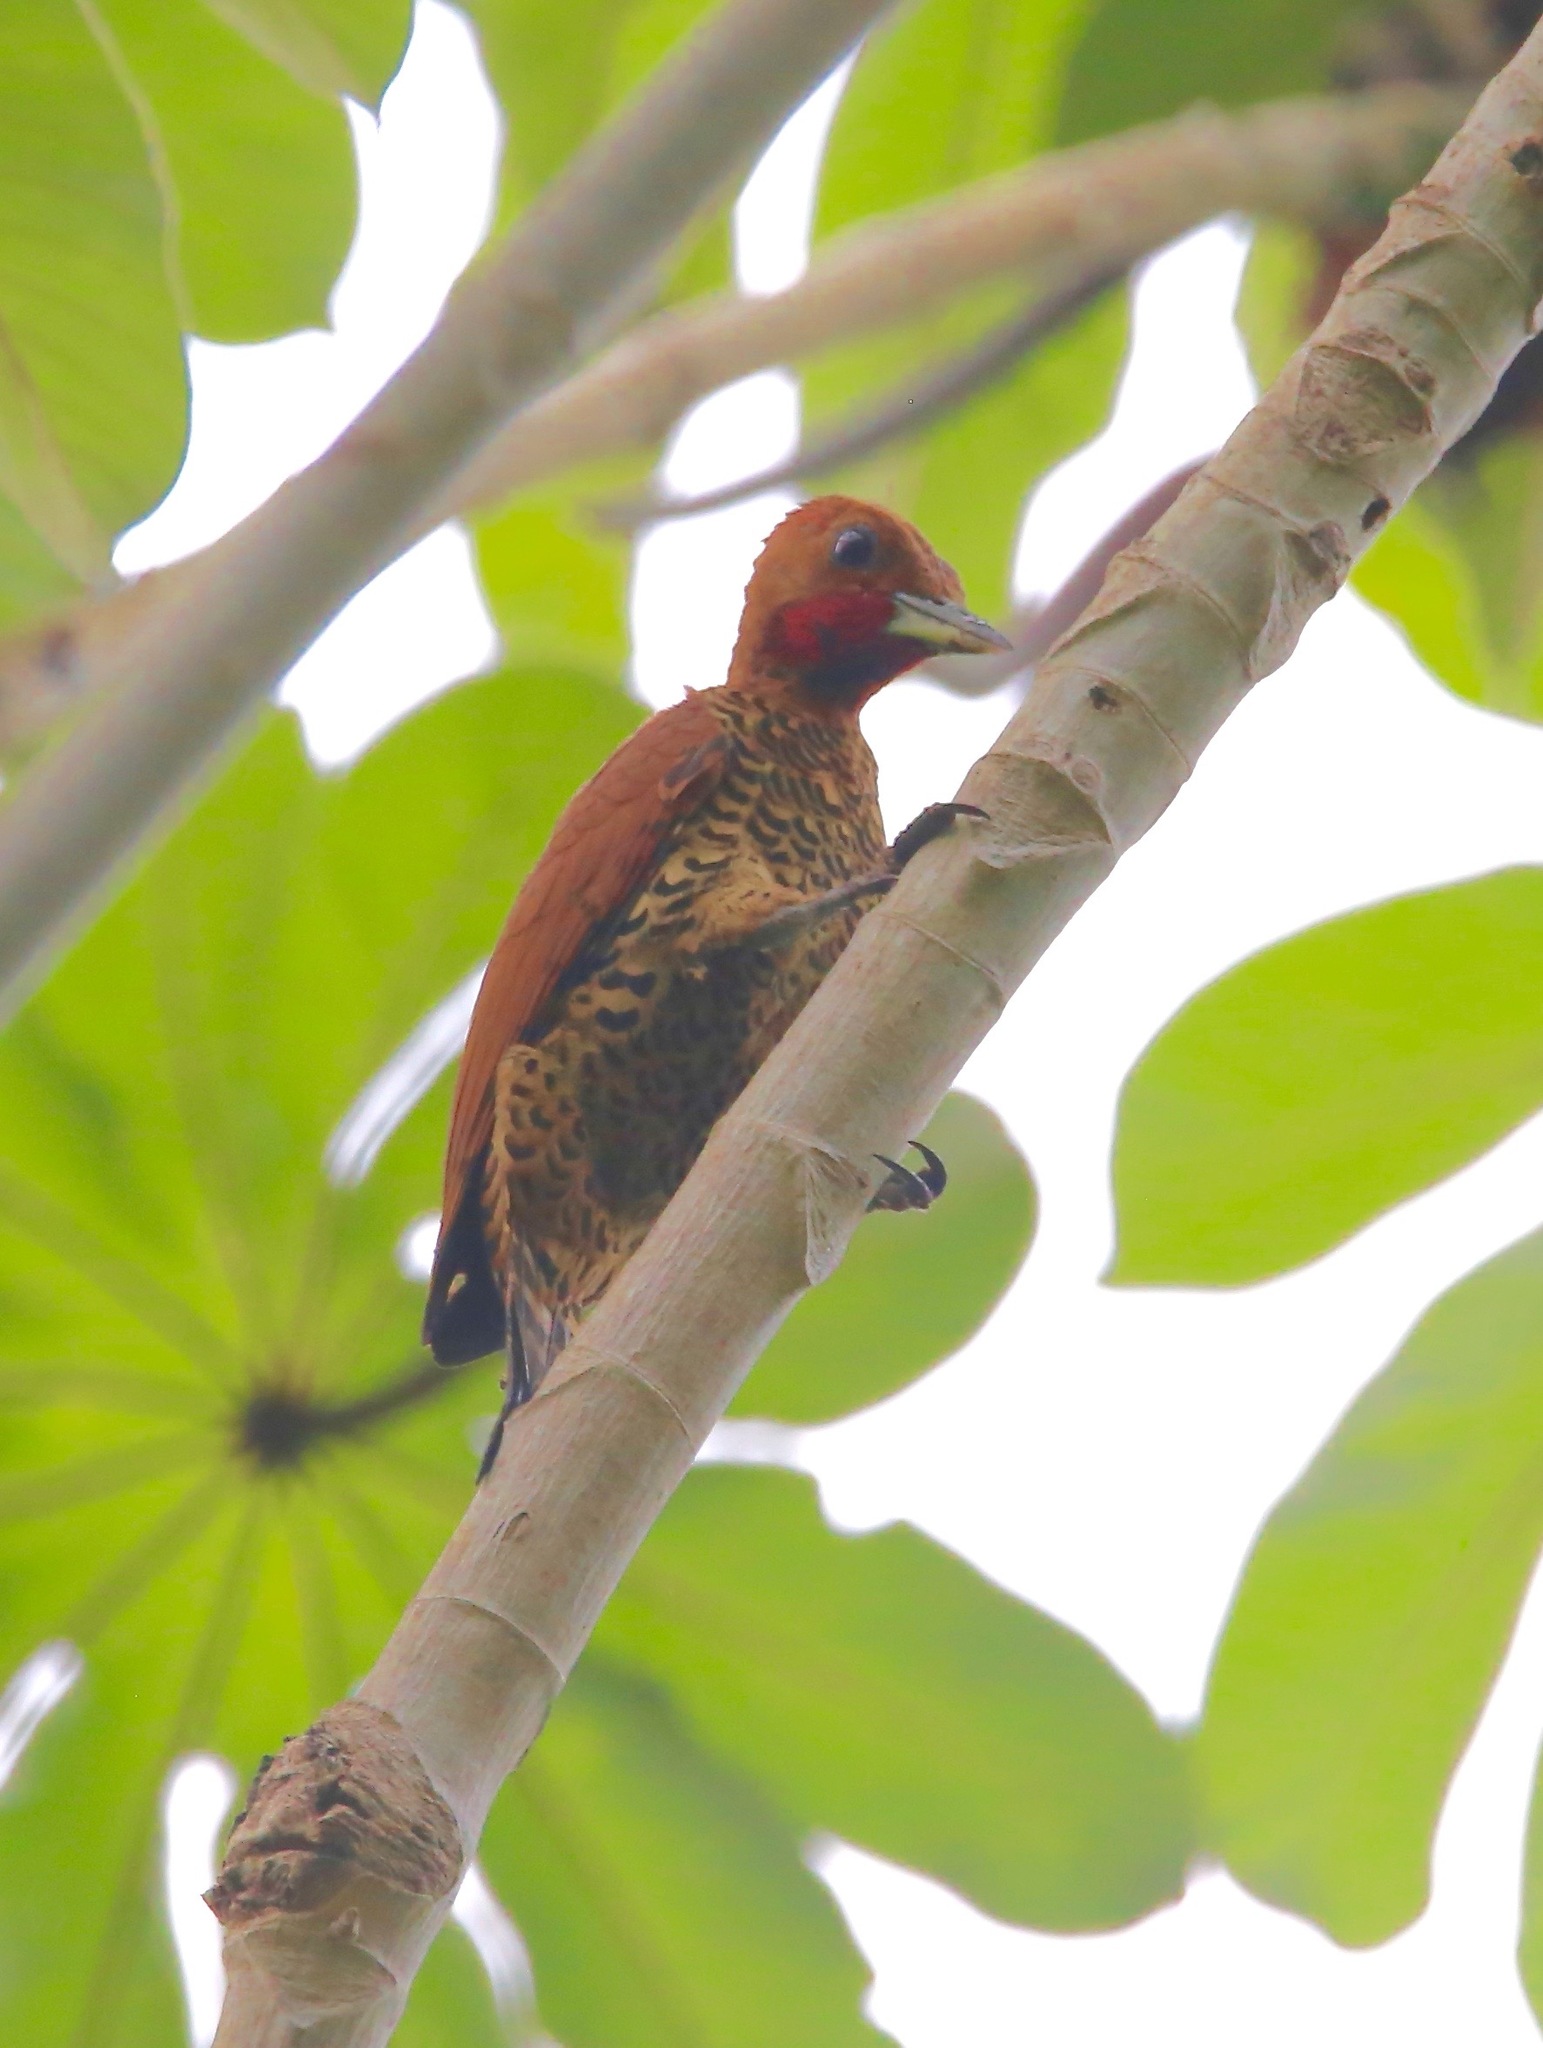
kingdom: Animalia
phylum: Chordata
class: Aves
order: Piciformes
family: Picidae
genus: Celeus
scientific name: Celeus loricatus
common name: Cinnamon woodpecker
